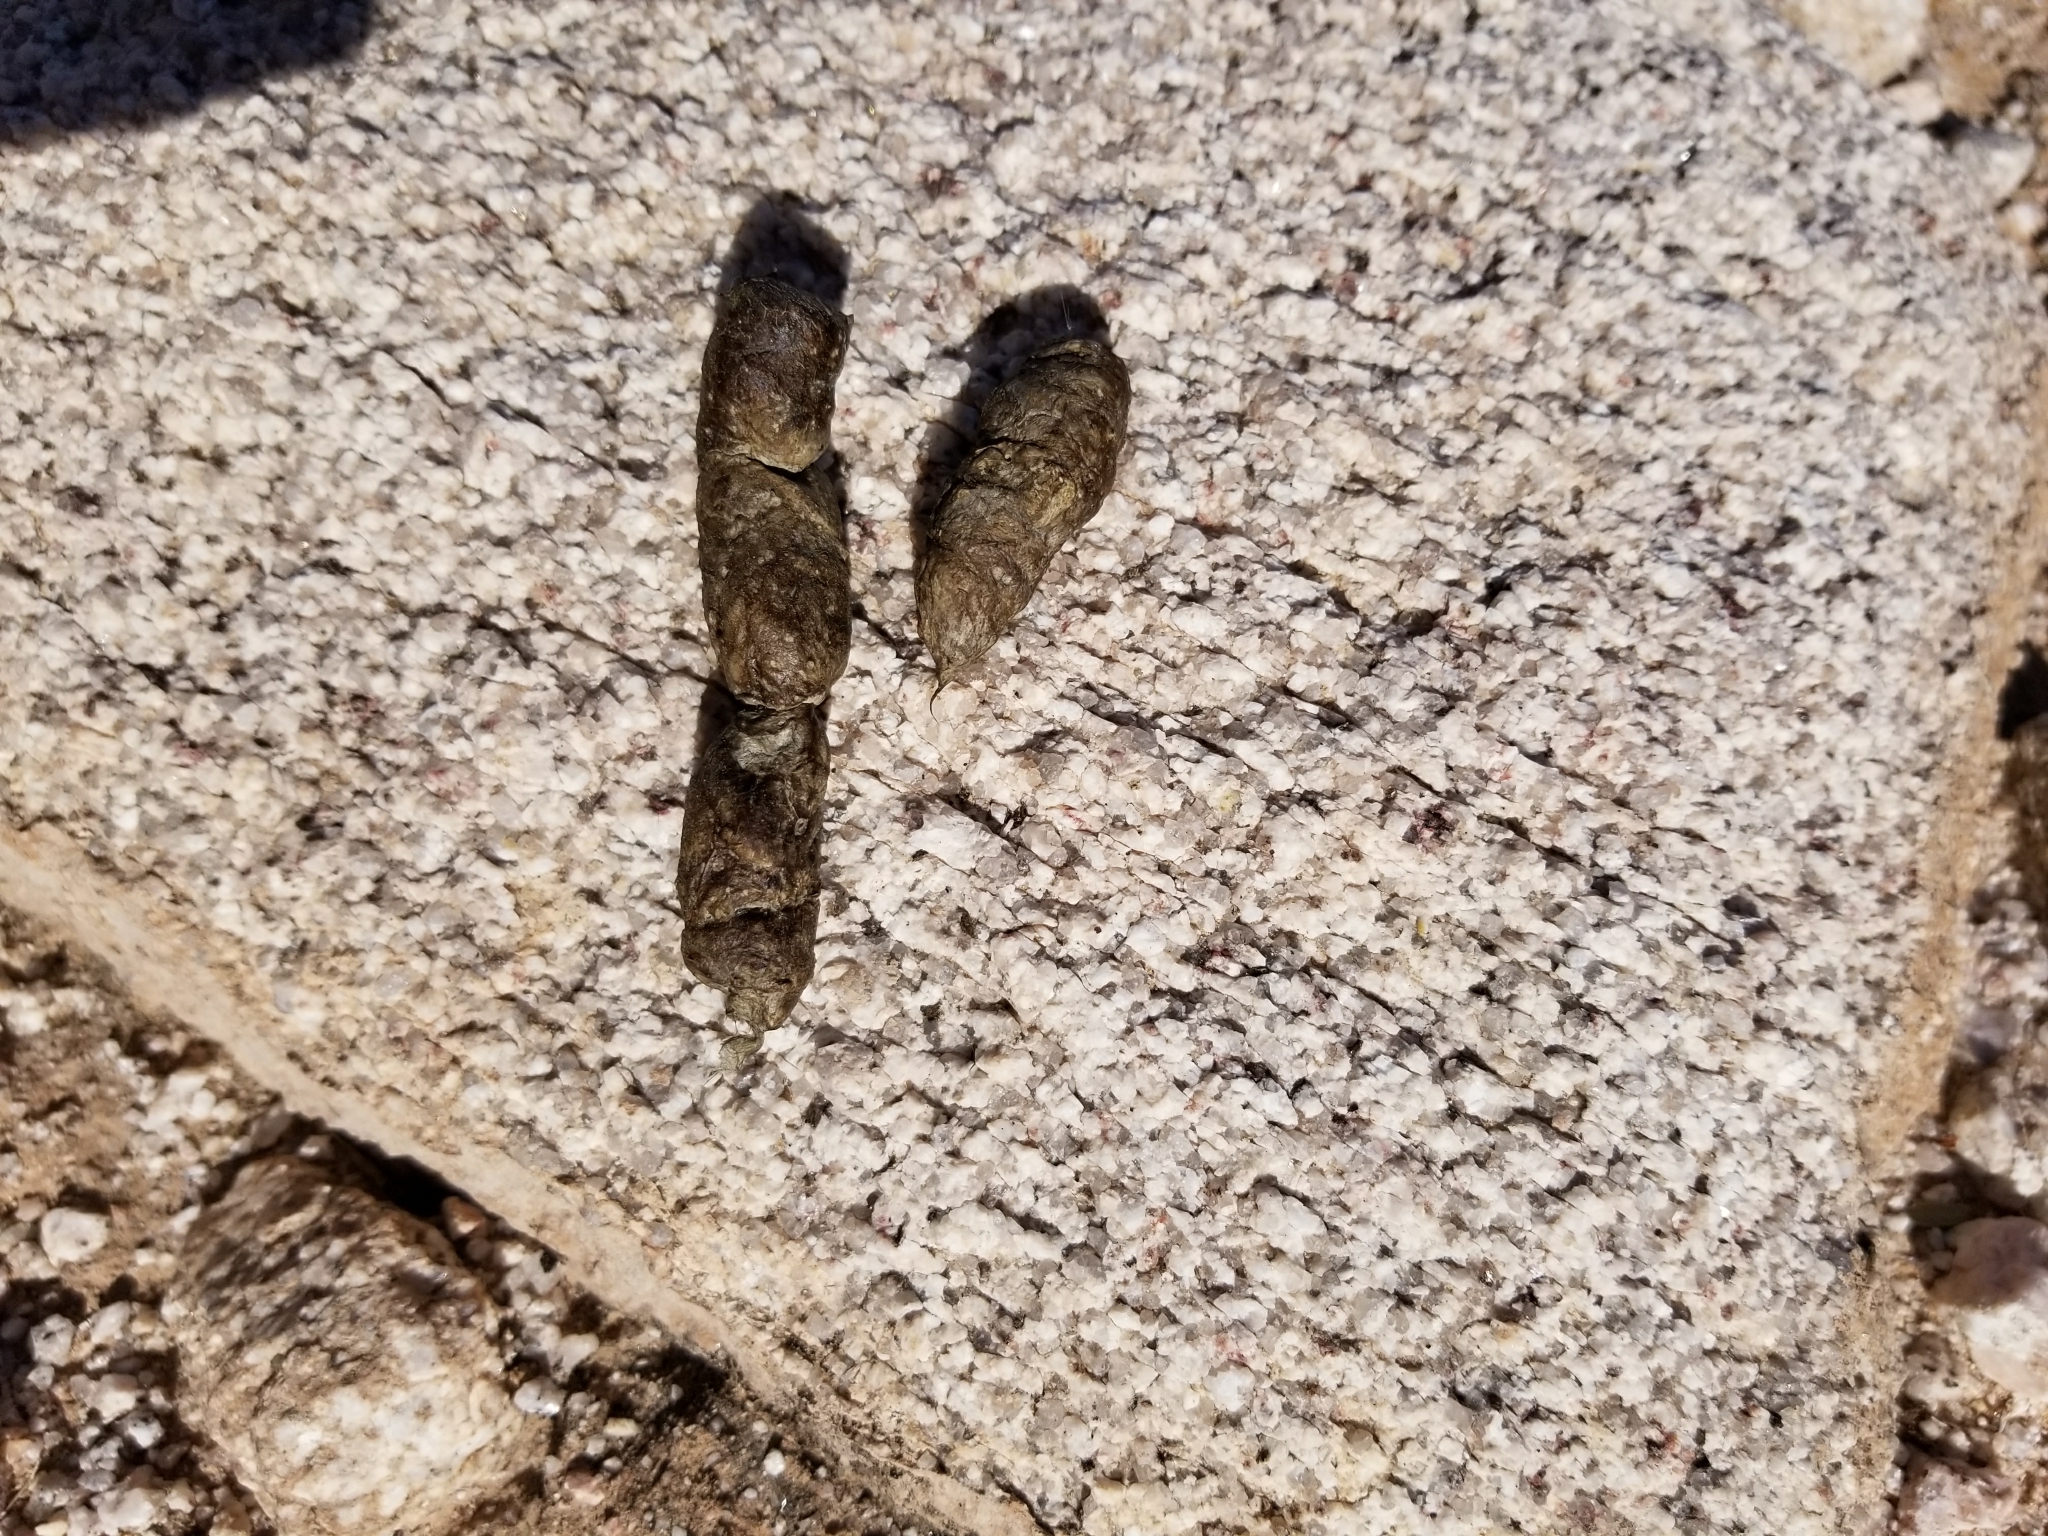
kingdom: Animalia
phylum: Chordata
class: Mammalia
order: Carnivora
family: Canidae
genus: Urocyon
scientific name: Urocyon cinereoargenteus
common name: Gray fox
